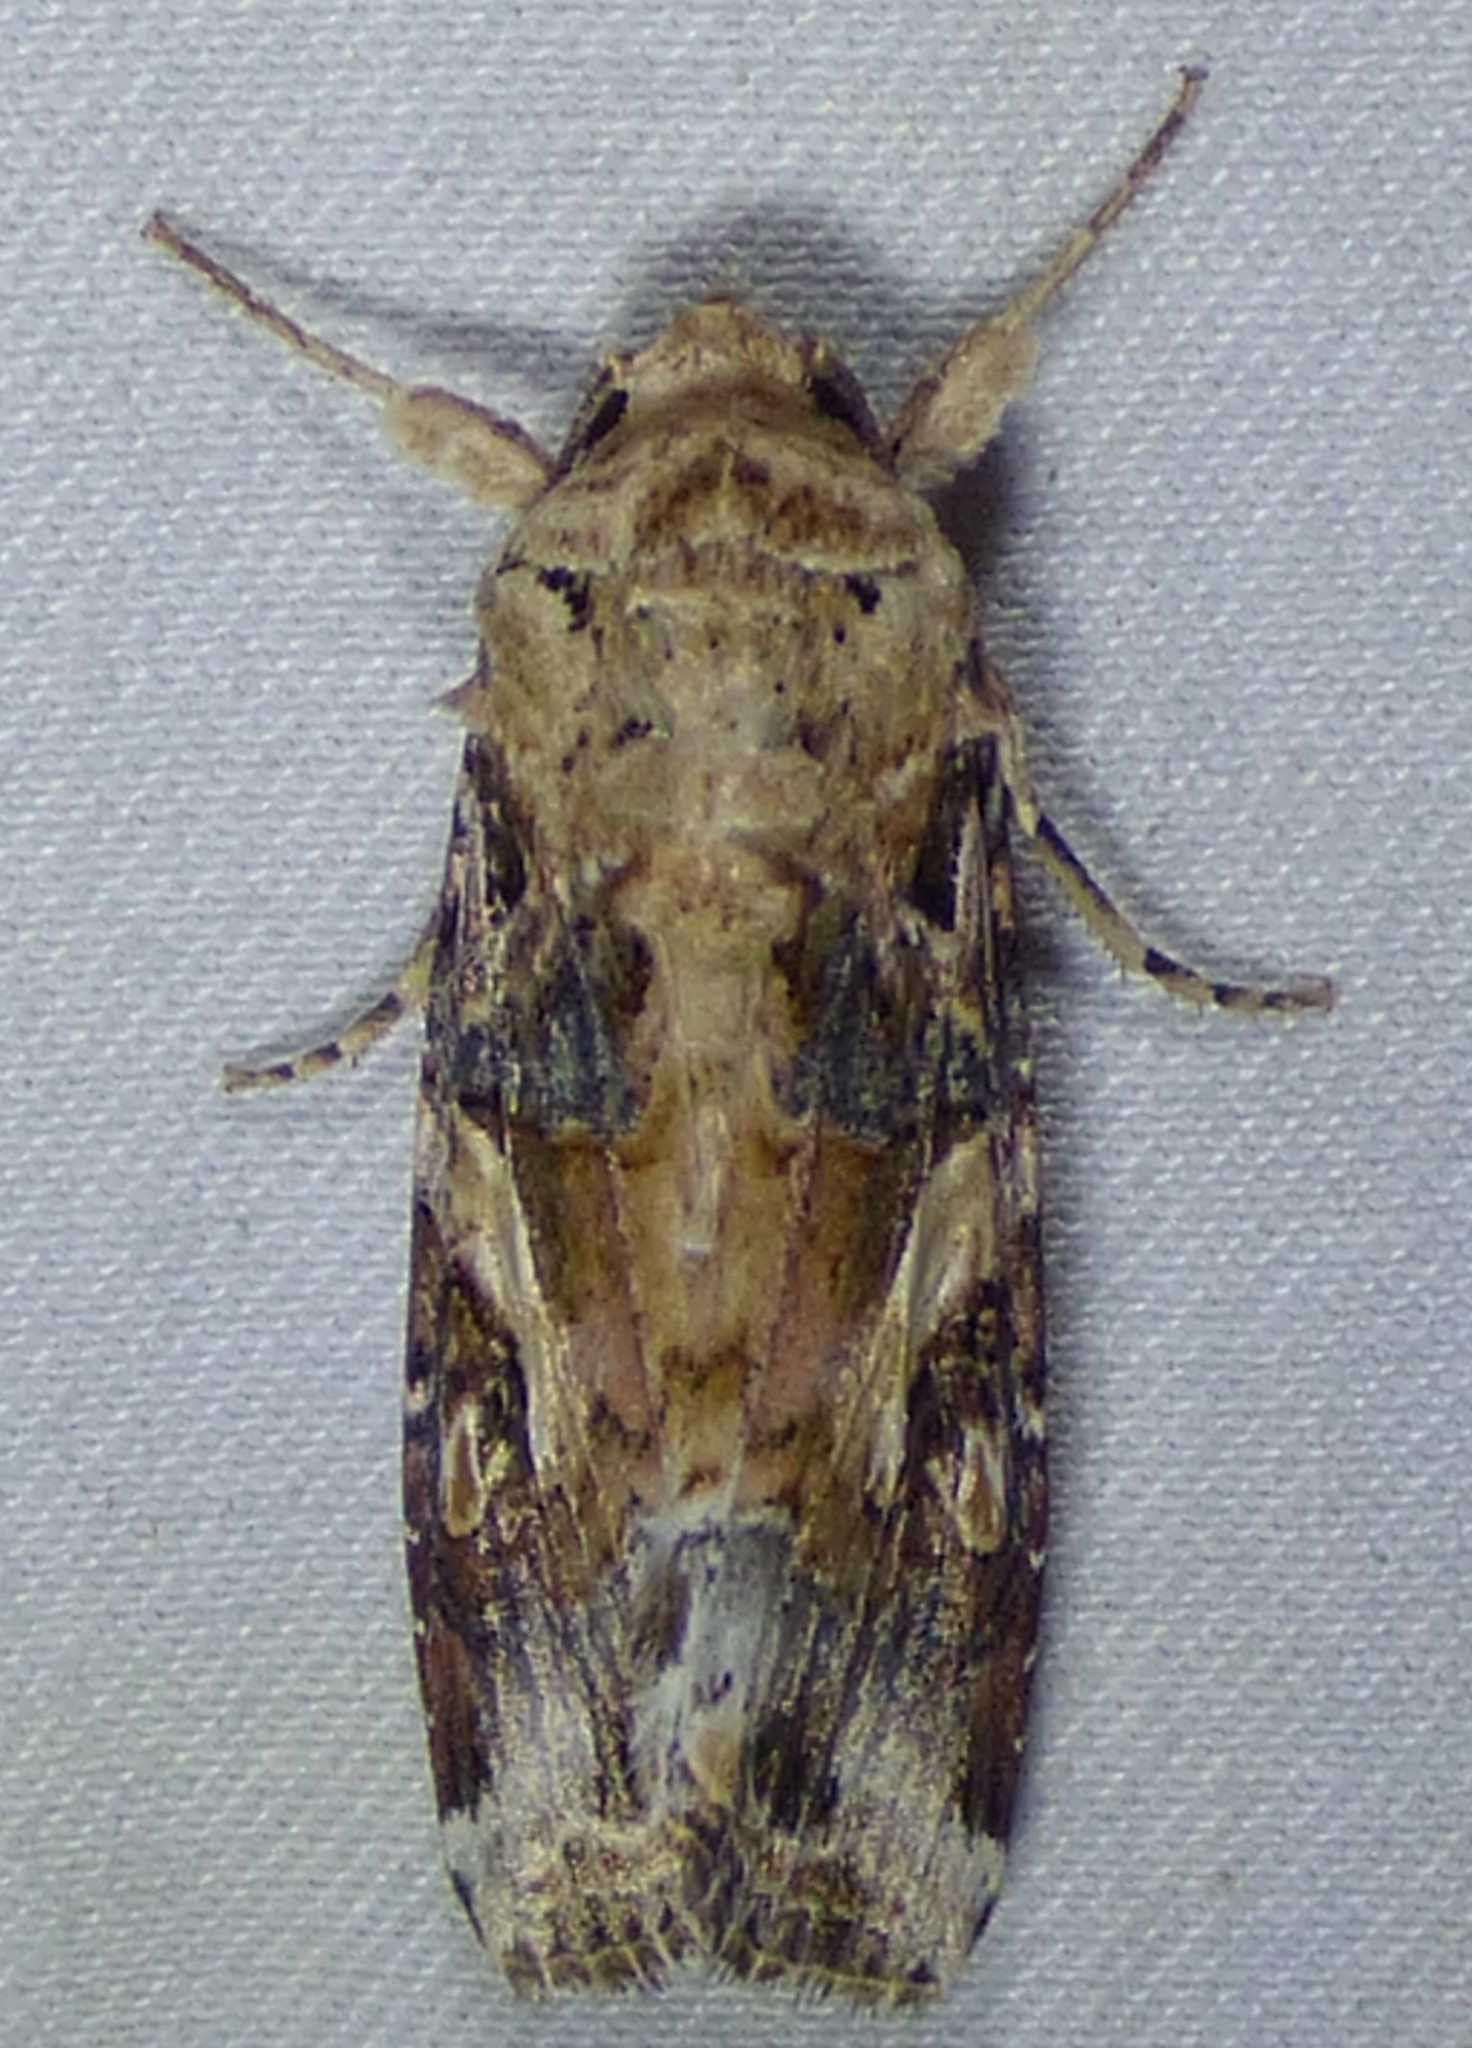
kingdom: Animalia
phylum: Arthropoda
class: Insecta
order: Lepidoptera
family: Noctuidae
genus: Spodoptera
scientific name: Spodoptera ornithogalli
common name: Yellow-striped armyworm
